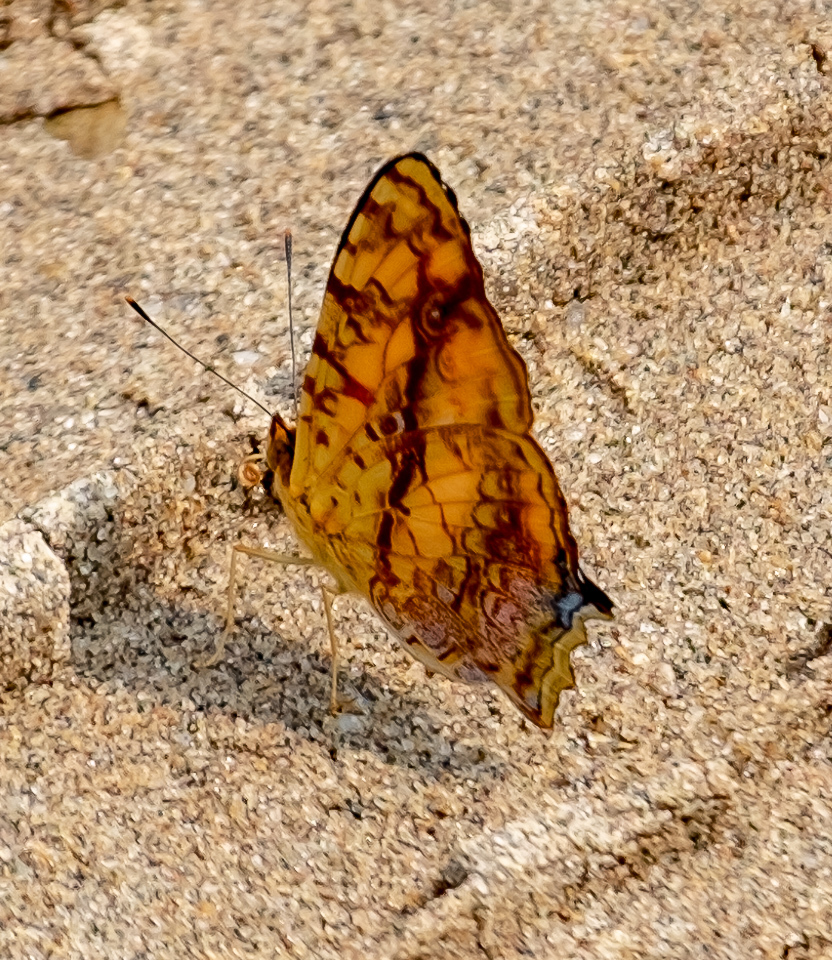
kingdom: Animalia
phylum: Arthropoda
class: Insecta
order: Lepidoptera
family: Nymphalidae
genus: Symbrenthia
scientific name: Symbrenthia hypselis
